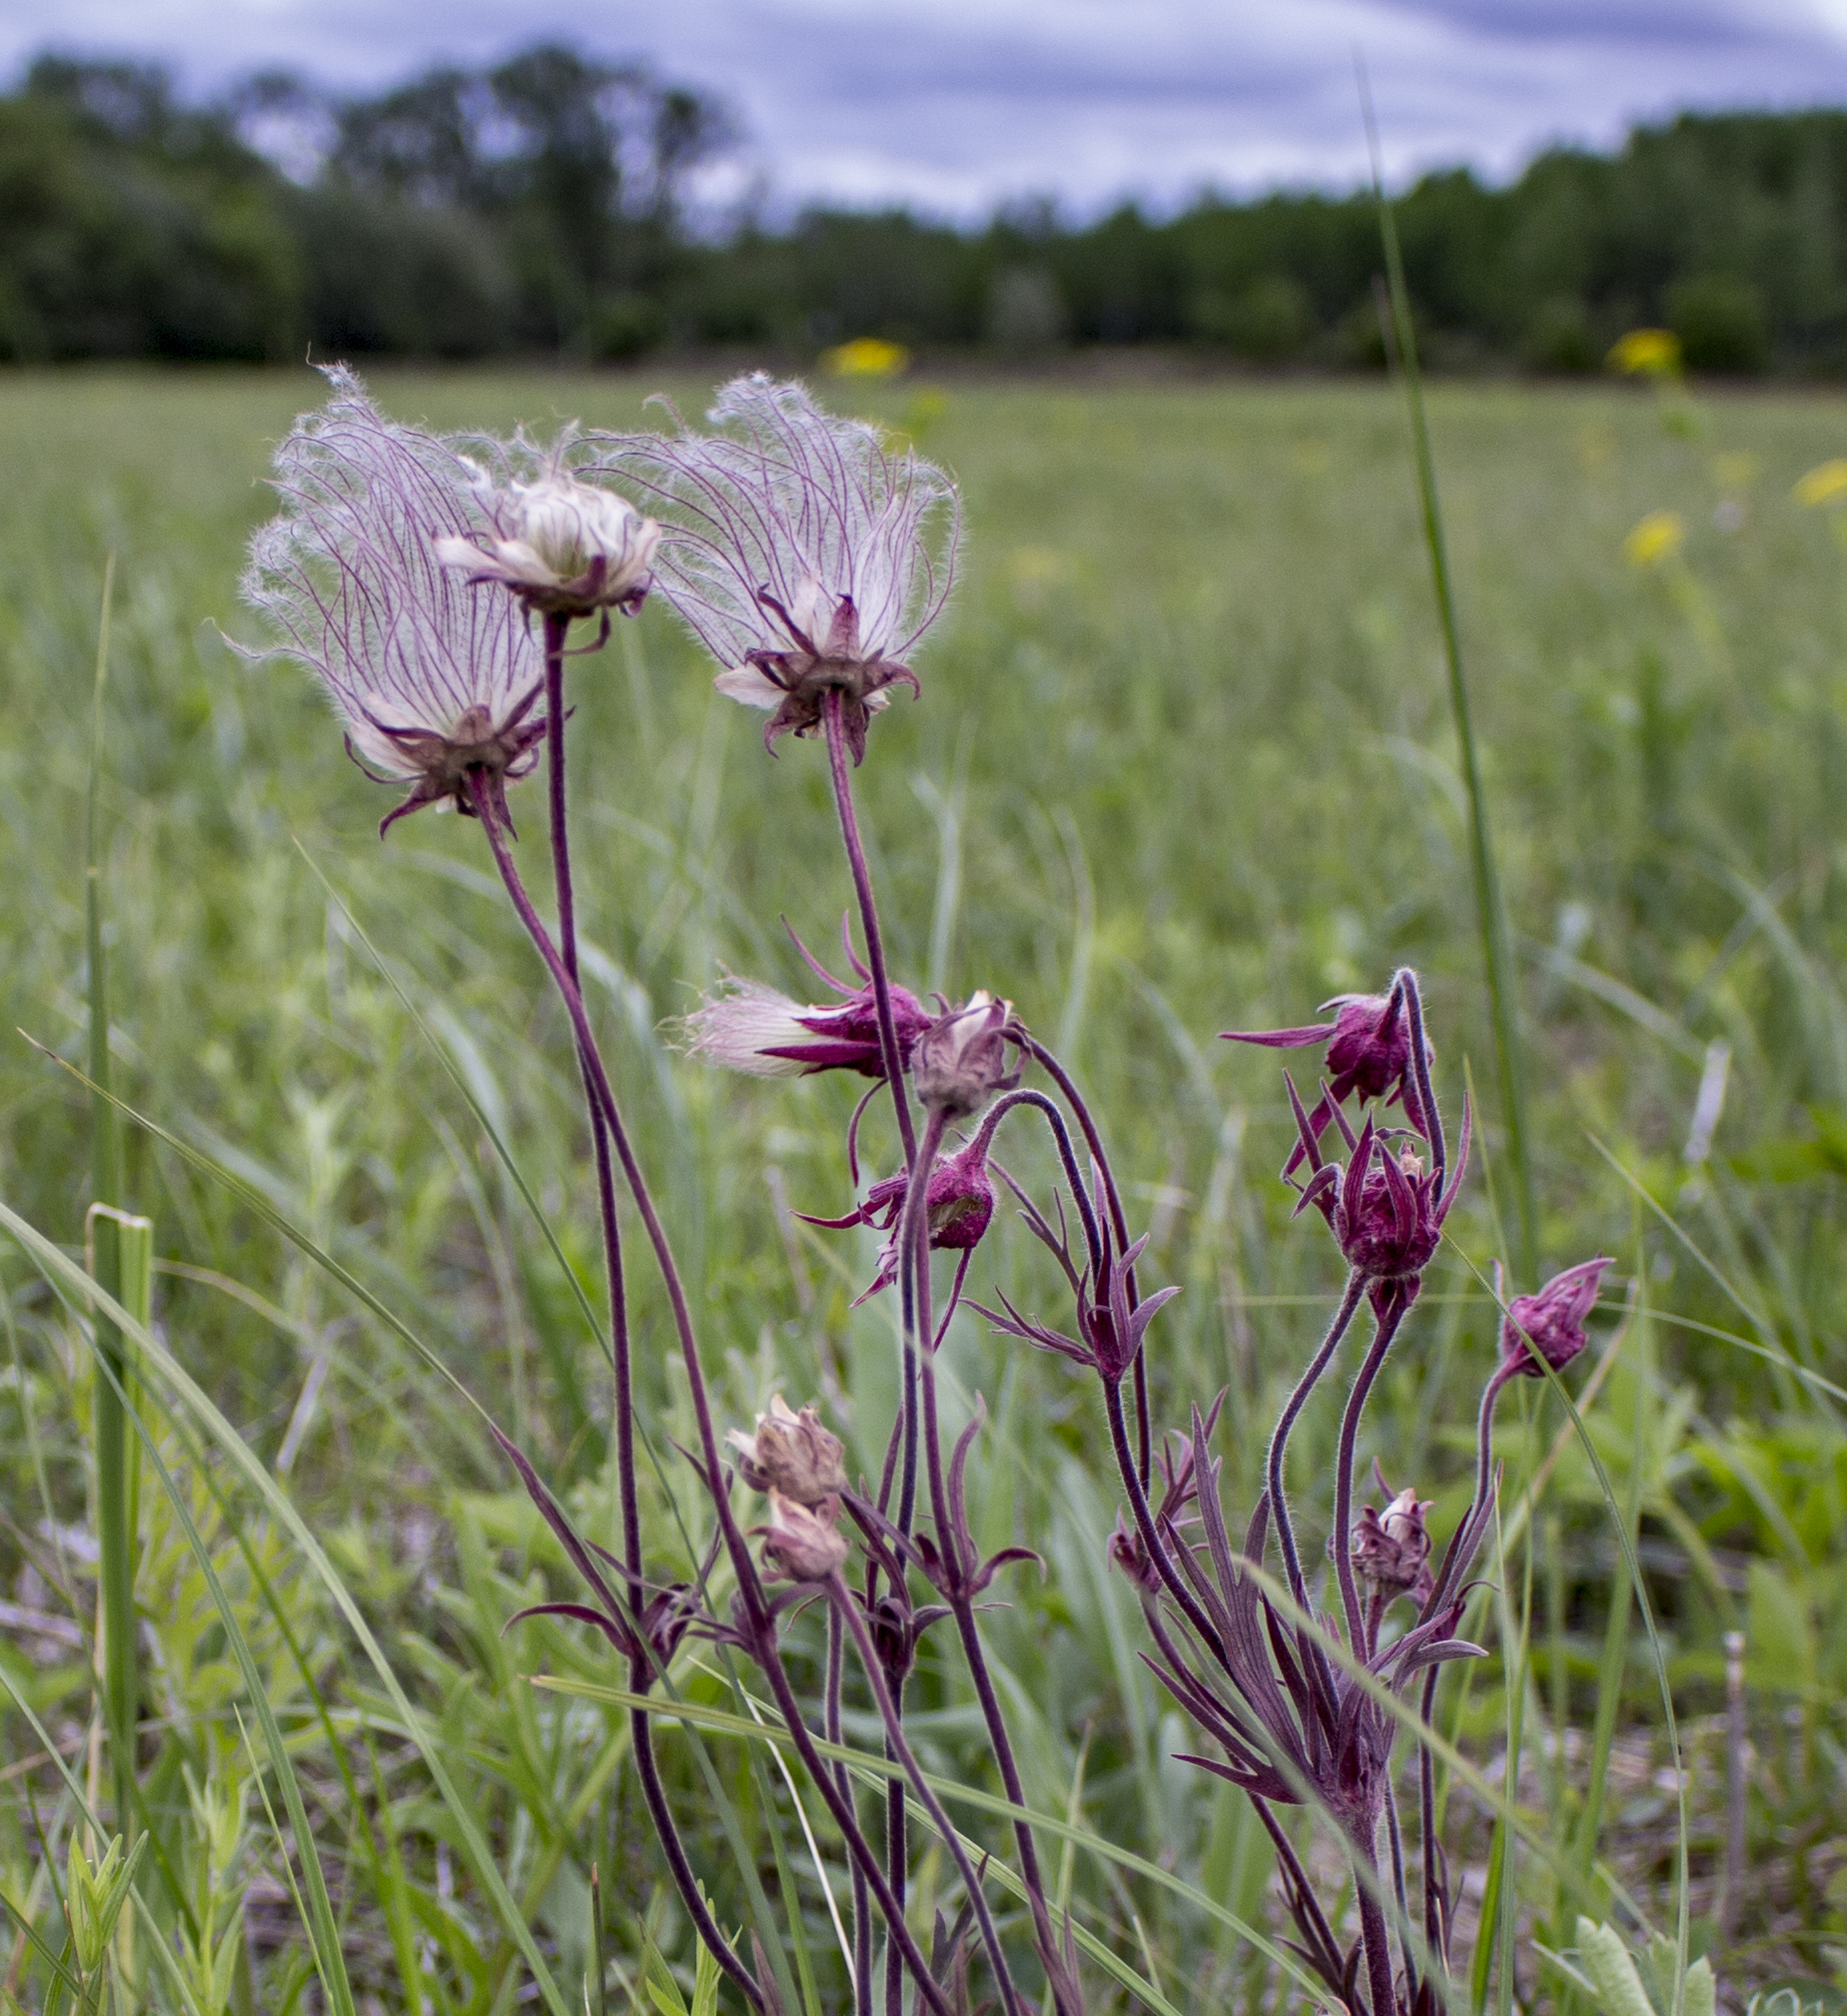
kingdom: Plantae
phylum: Tracheophyta
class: Magnoliopsida
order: Rosales
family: Rosaceae
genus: Geum
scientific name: Geum triflorum
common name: Old man's whiskers
